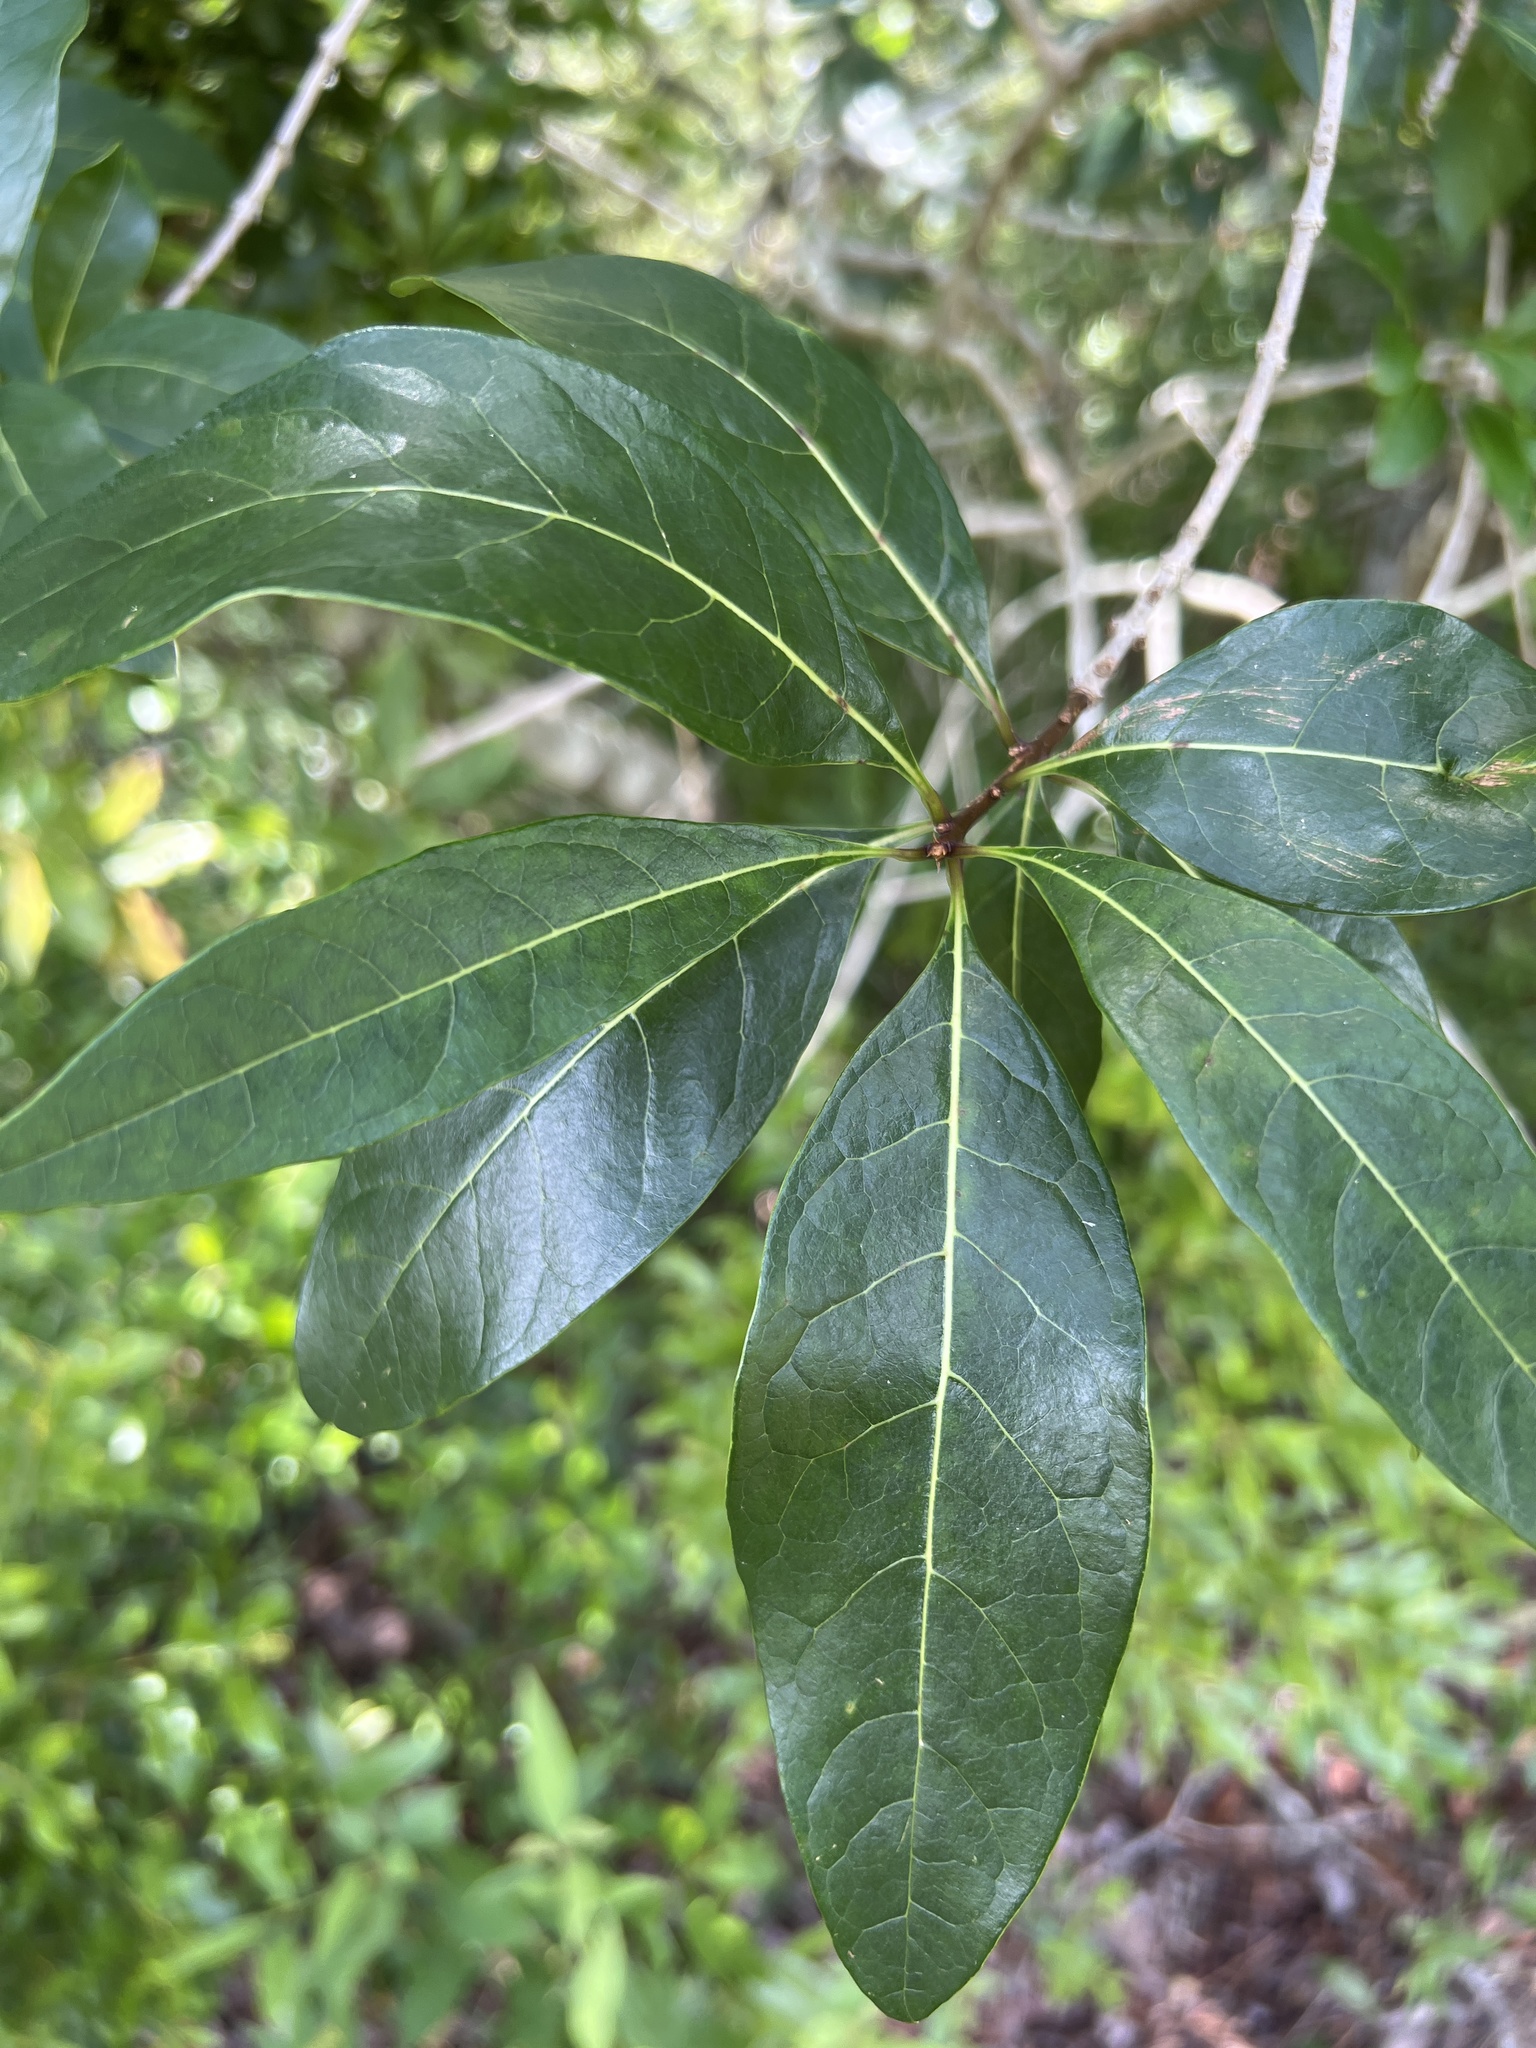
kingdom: Plantae
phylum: Tracheophyta
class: Magnoliopsida
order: Lamiales
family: Oleaceae
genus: Chionanthus
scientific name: Chionanthus virginicus
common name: American fringetree
